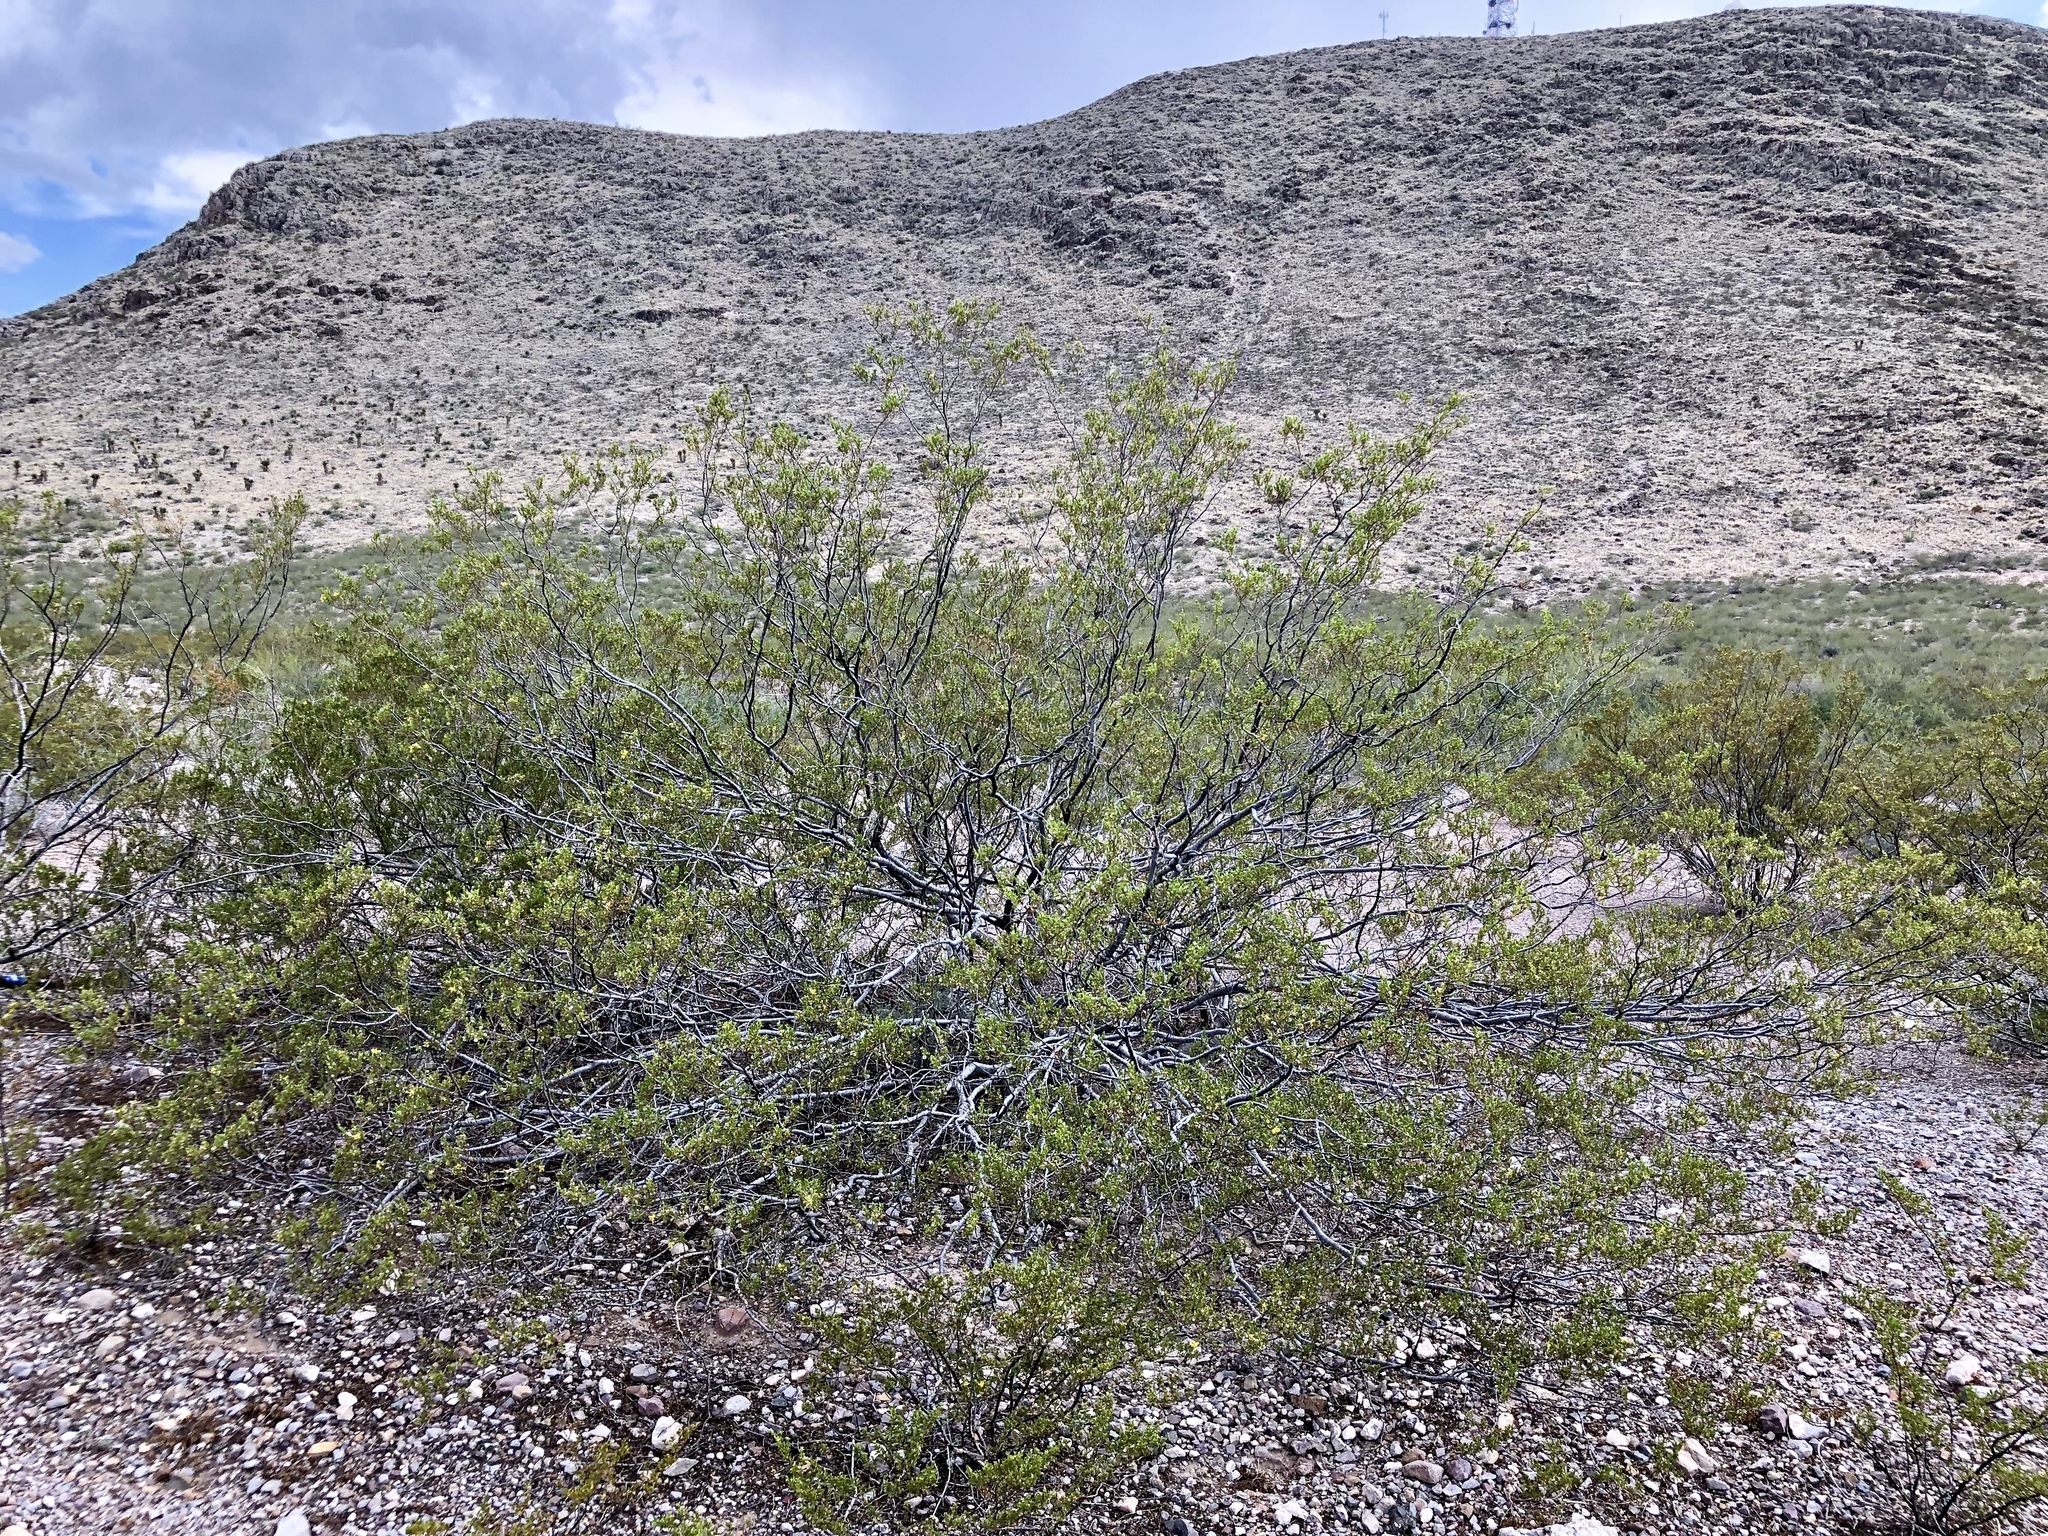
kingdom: Plantae
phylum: Tracheophyta
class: Magnoliopsida
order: Zygophyllales
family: Zygophyllaceae
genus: Larrea
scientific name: Larrea tridentata
